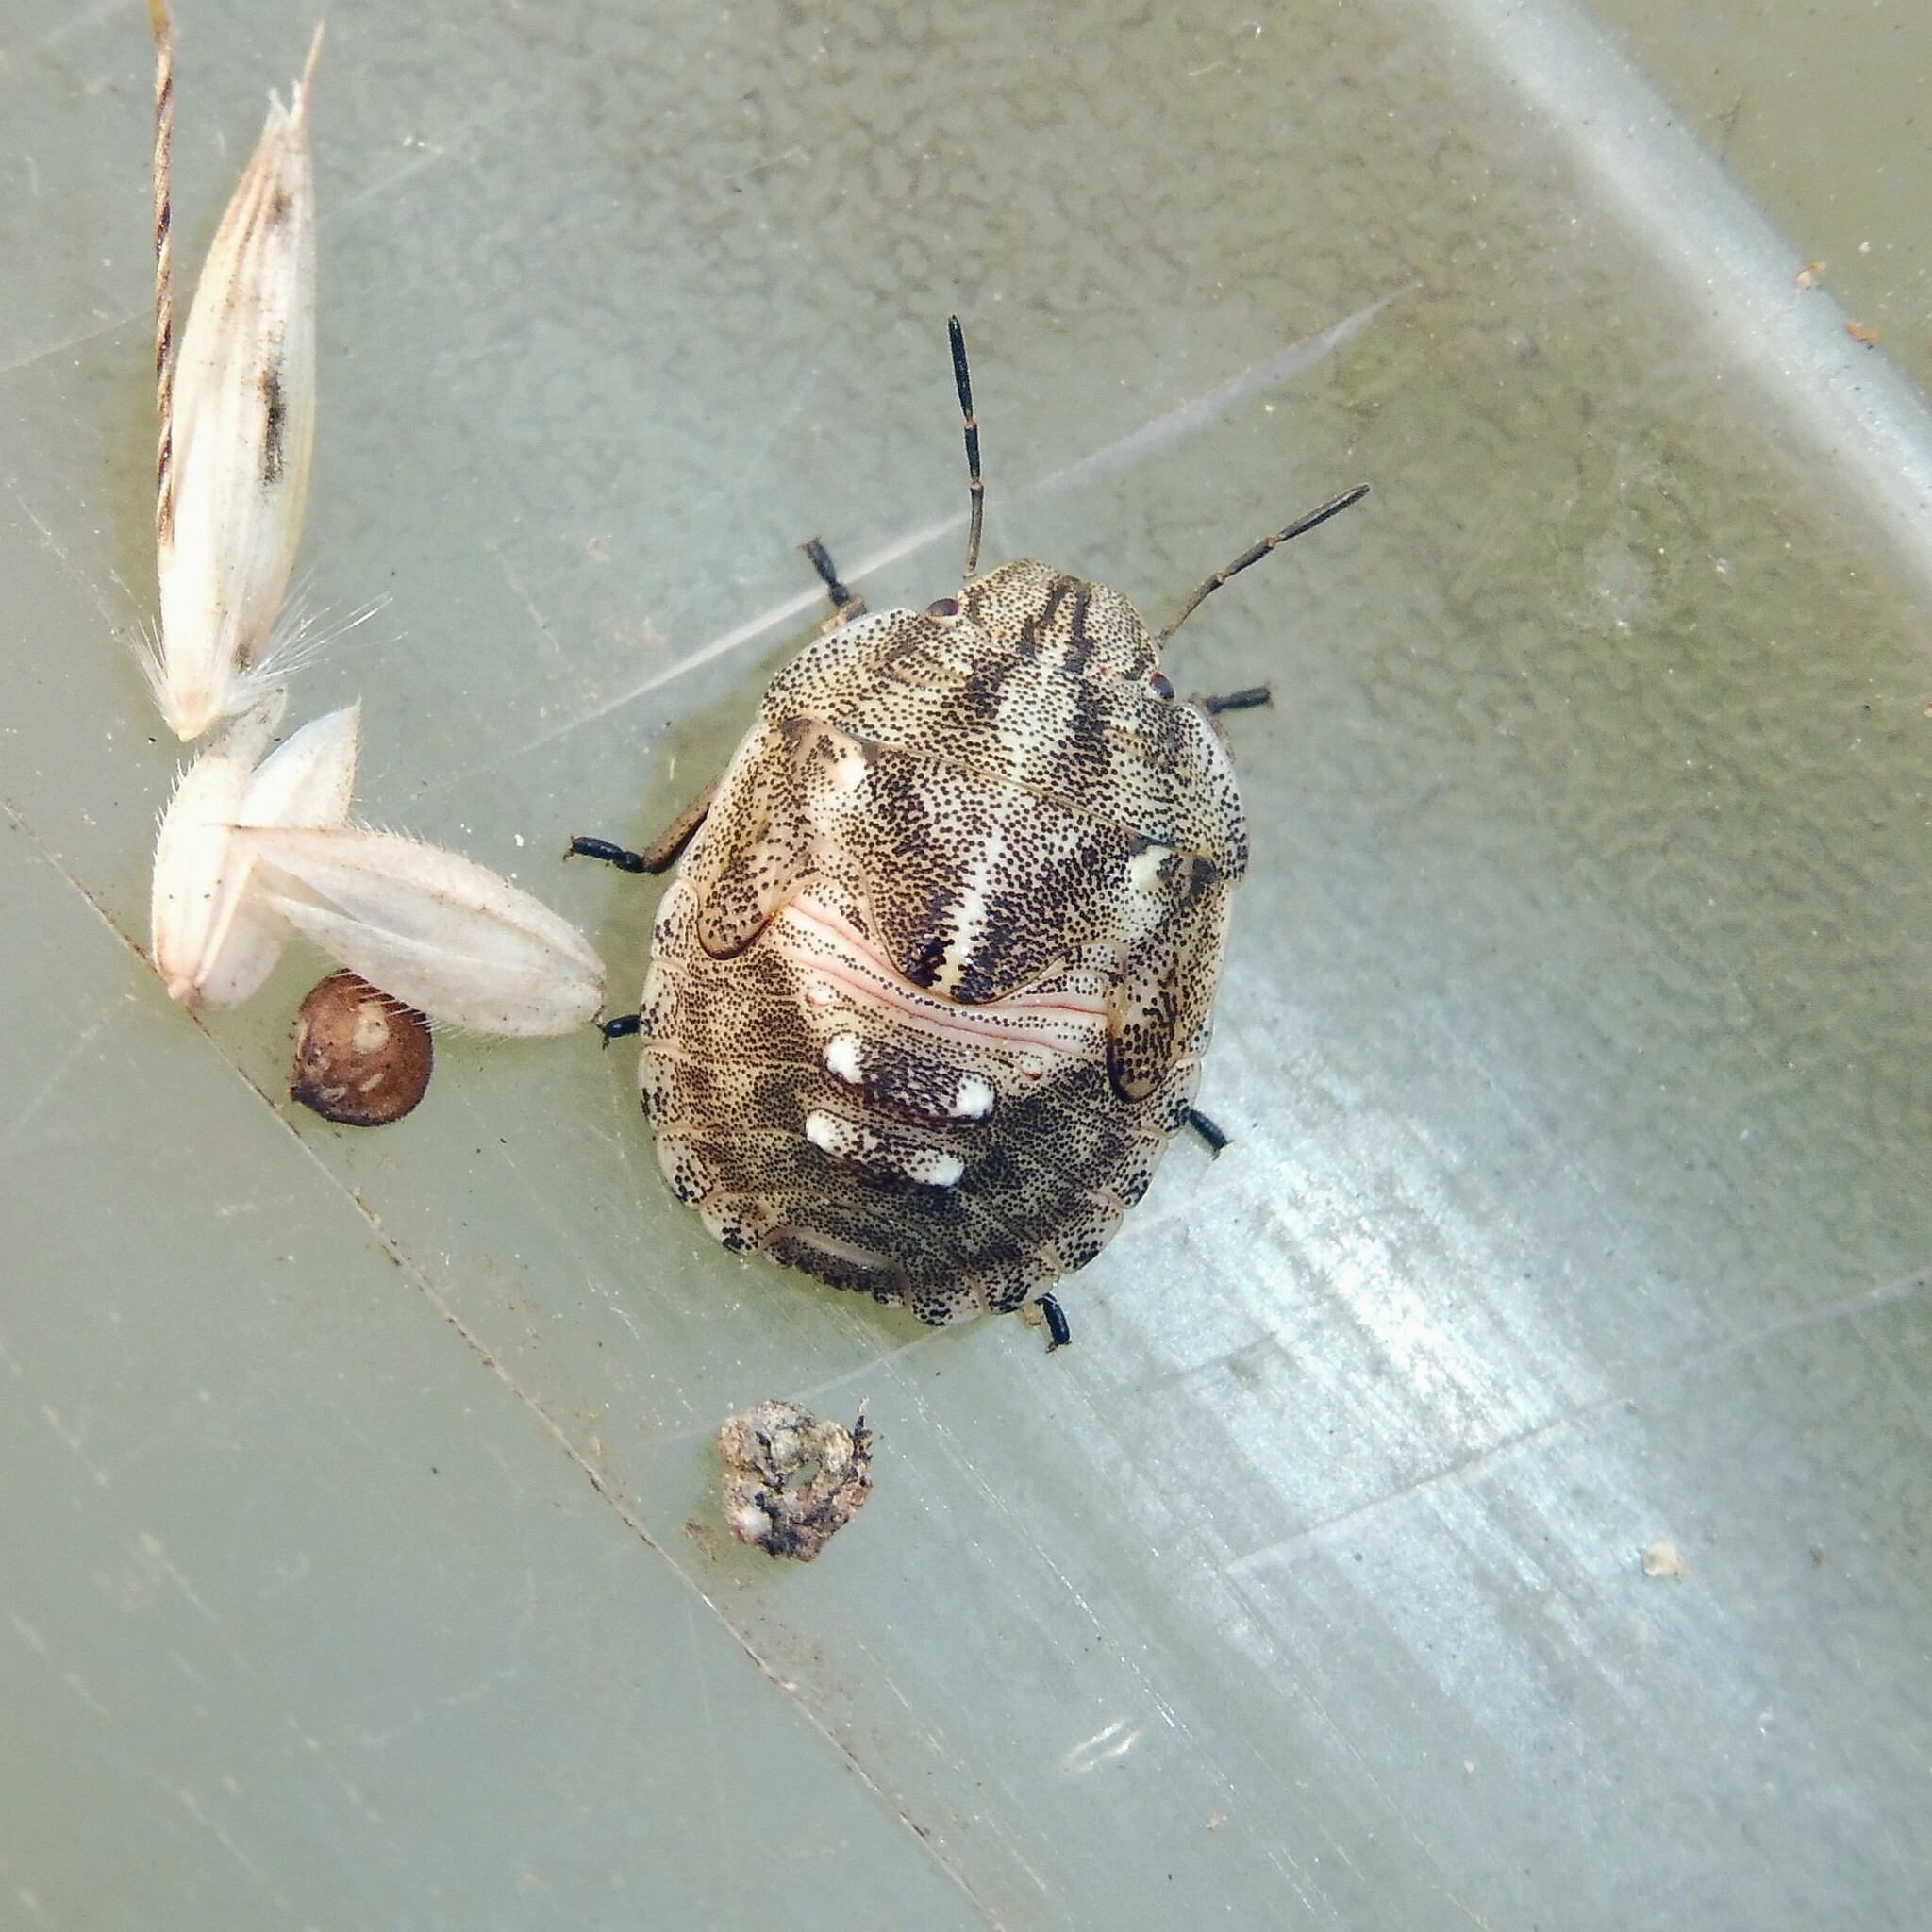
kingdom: Animalia
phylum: Arthropoda
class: Insecta
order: Hemiptera
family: Scutelleridae
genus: Eurygaster
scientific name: Eurygaster testudinaria
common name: Tortoise bug
